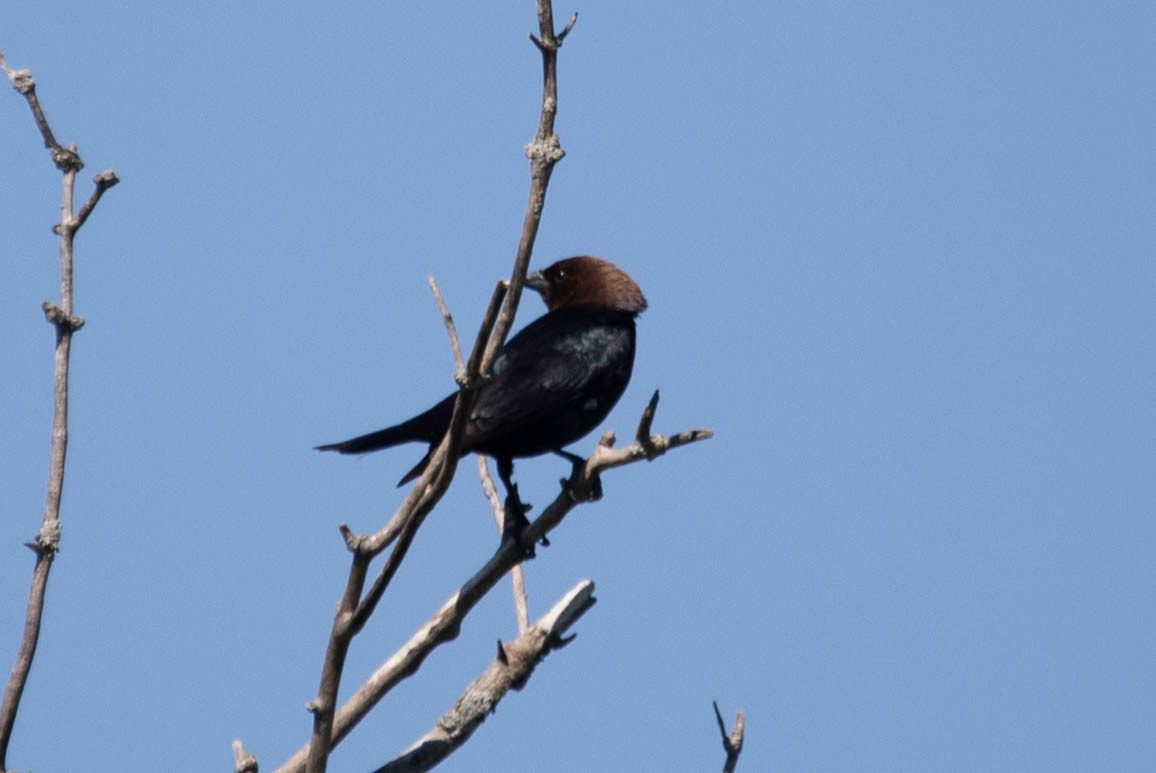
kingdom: Animalia
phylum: Chordata
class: Aves
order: Passeriformes
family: Icteridae
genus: Molothrus
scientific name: Molothrus ater
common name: Brown-headed cowbird
